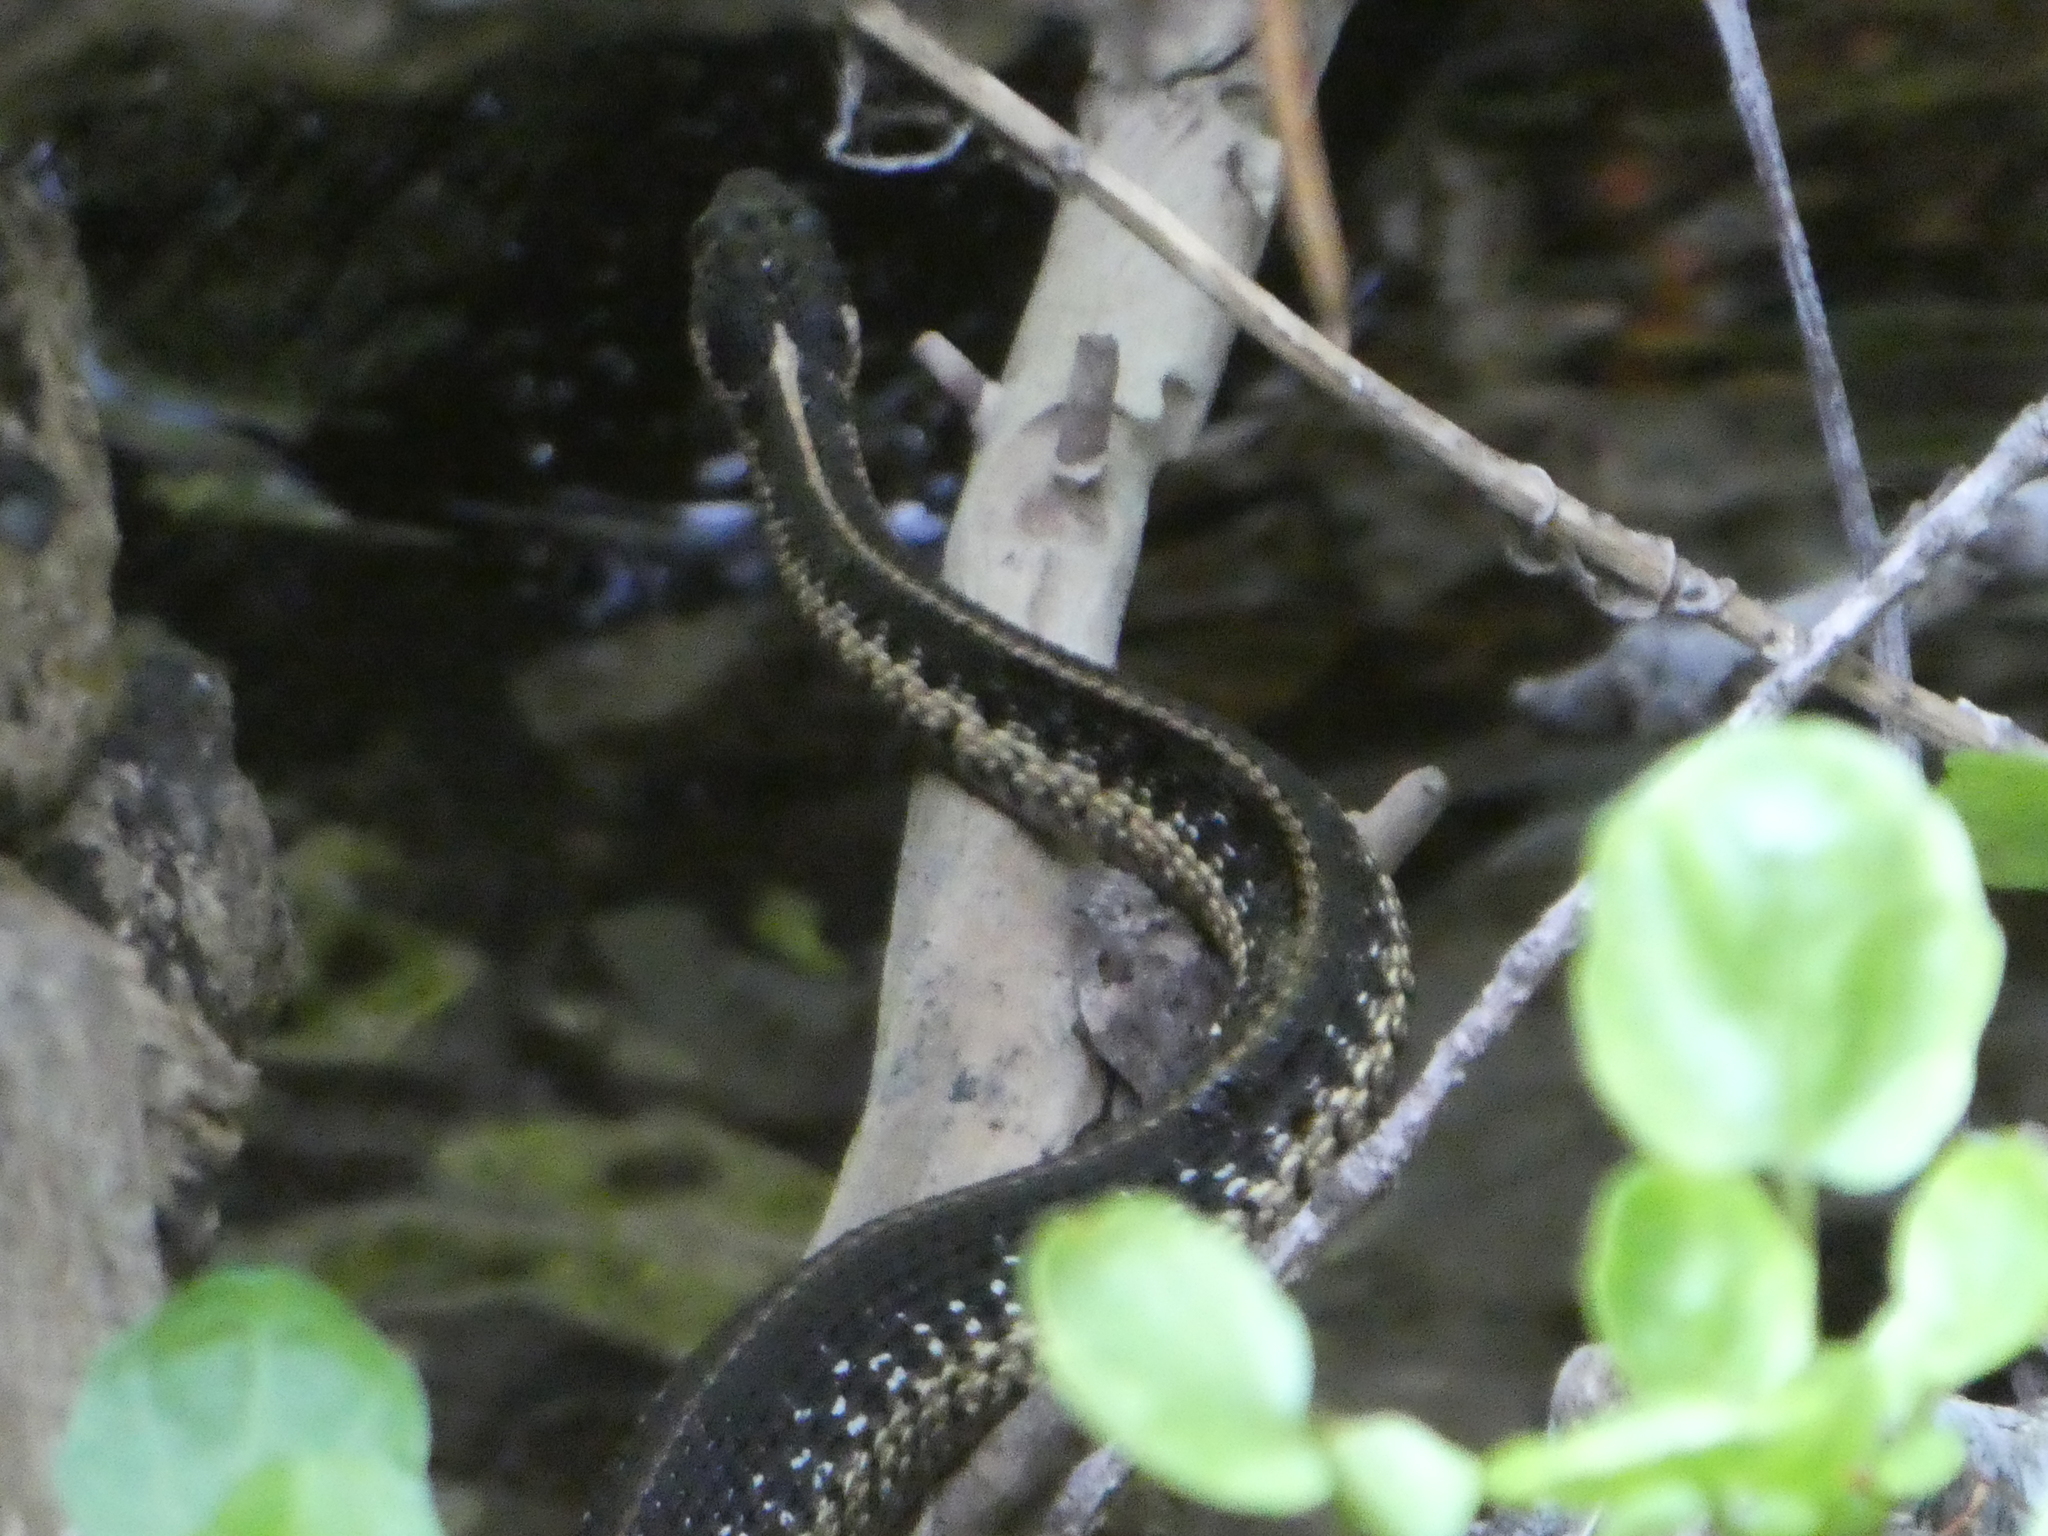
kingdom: Animalia
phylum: Chordata
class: Squamata
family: Colubridae
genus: Thamnophis
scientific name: Thamnophis couchii
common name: Western aquatic garter snake
